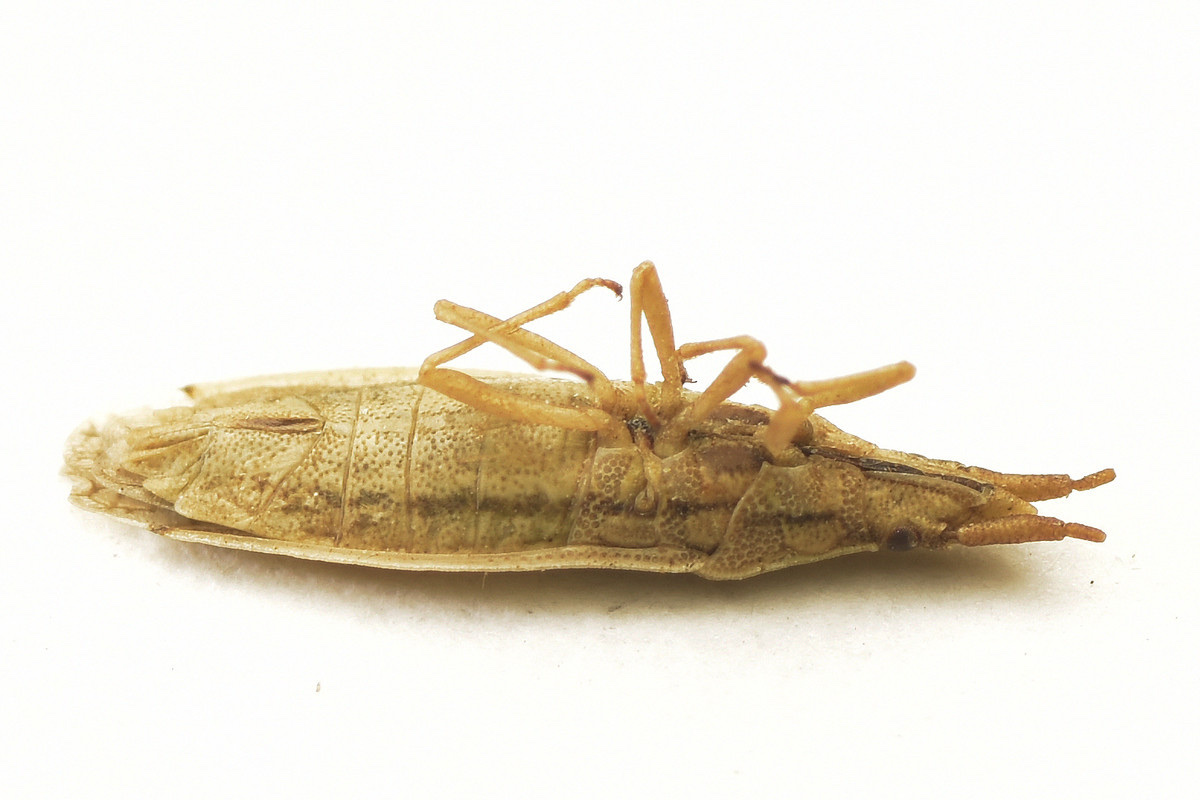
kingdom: Animalia
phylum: Arthropoda
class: Insecta
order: Hemiptera
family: Cryptorhamphidae
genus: Cryptorhamphus
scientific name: Cryptorhamphus orbus
